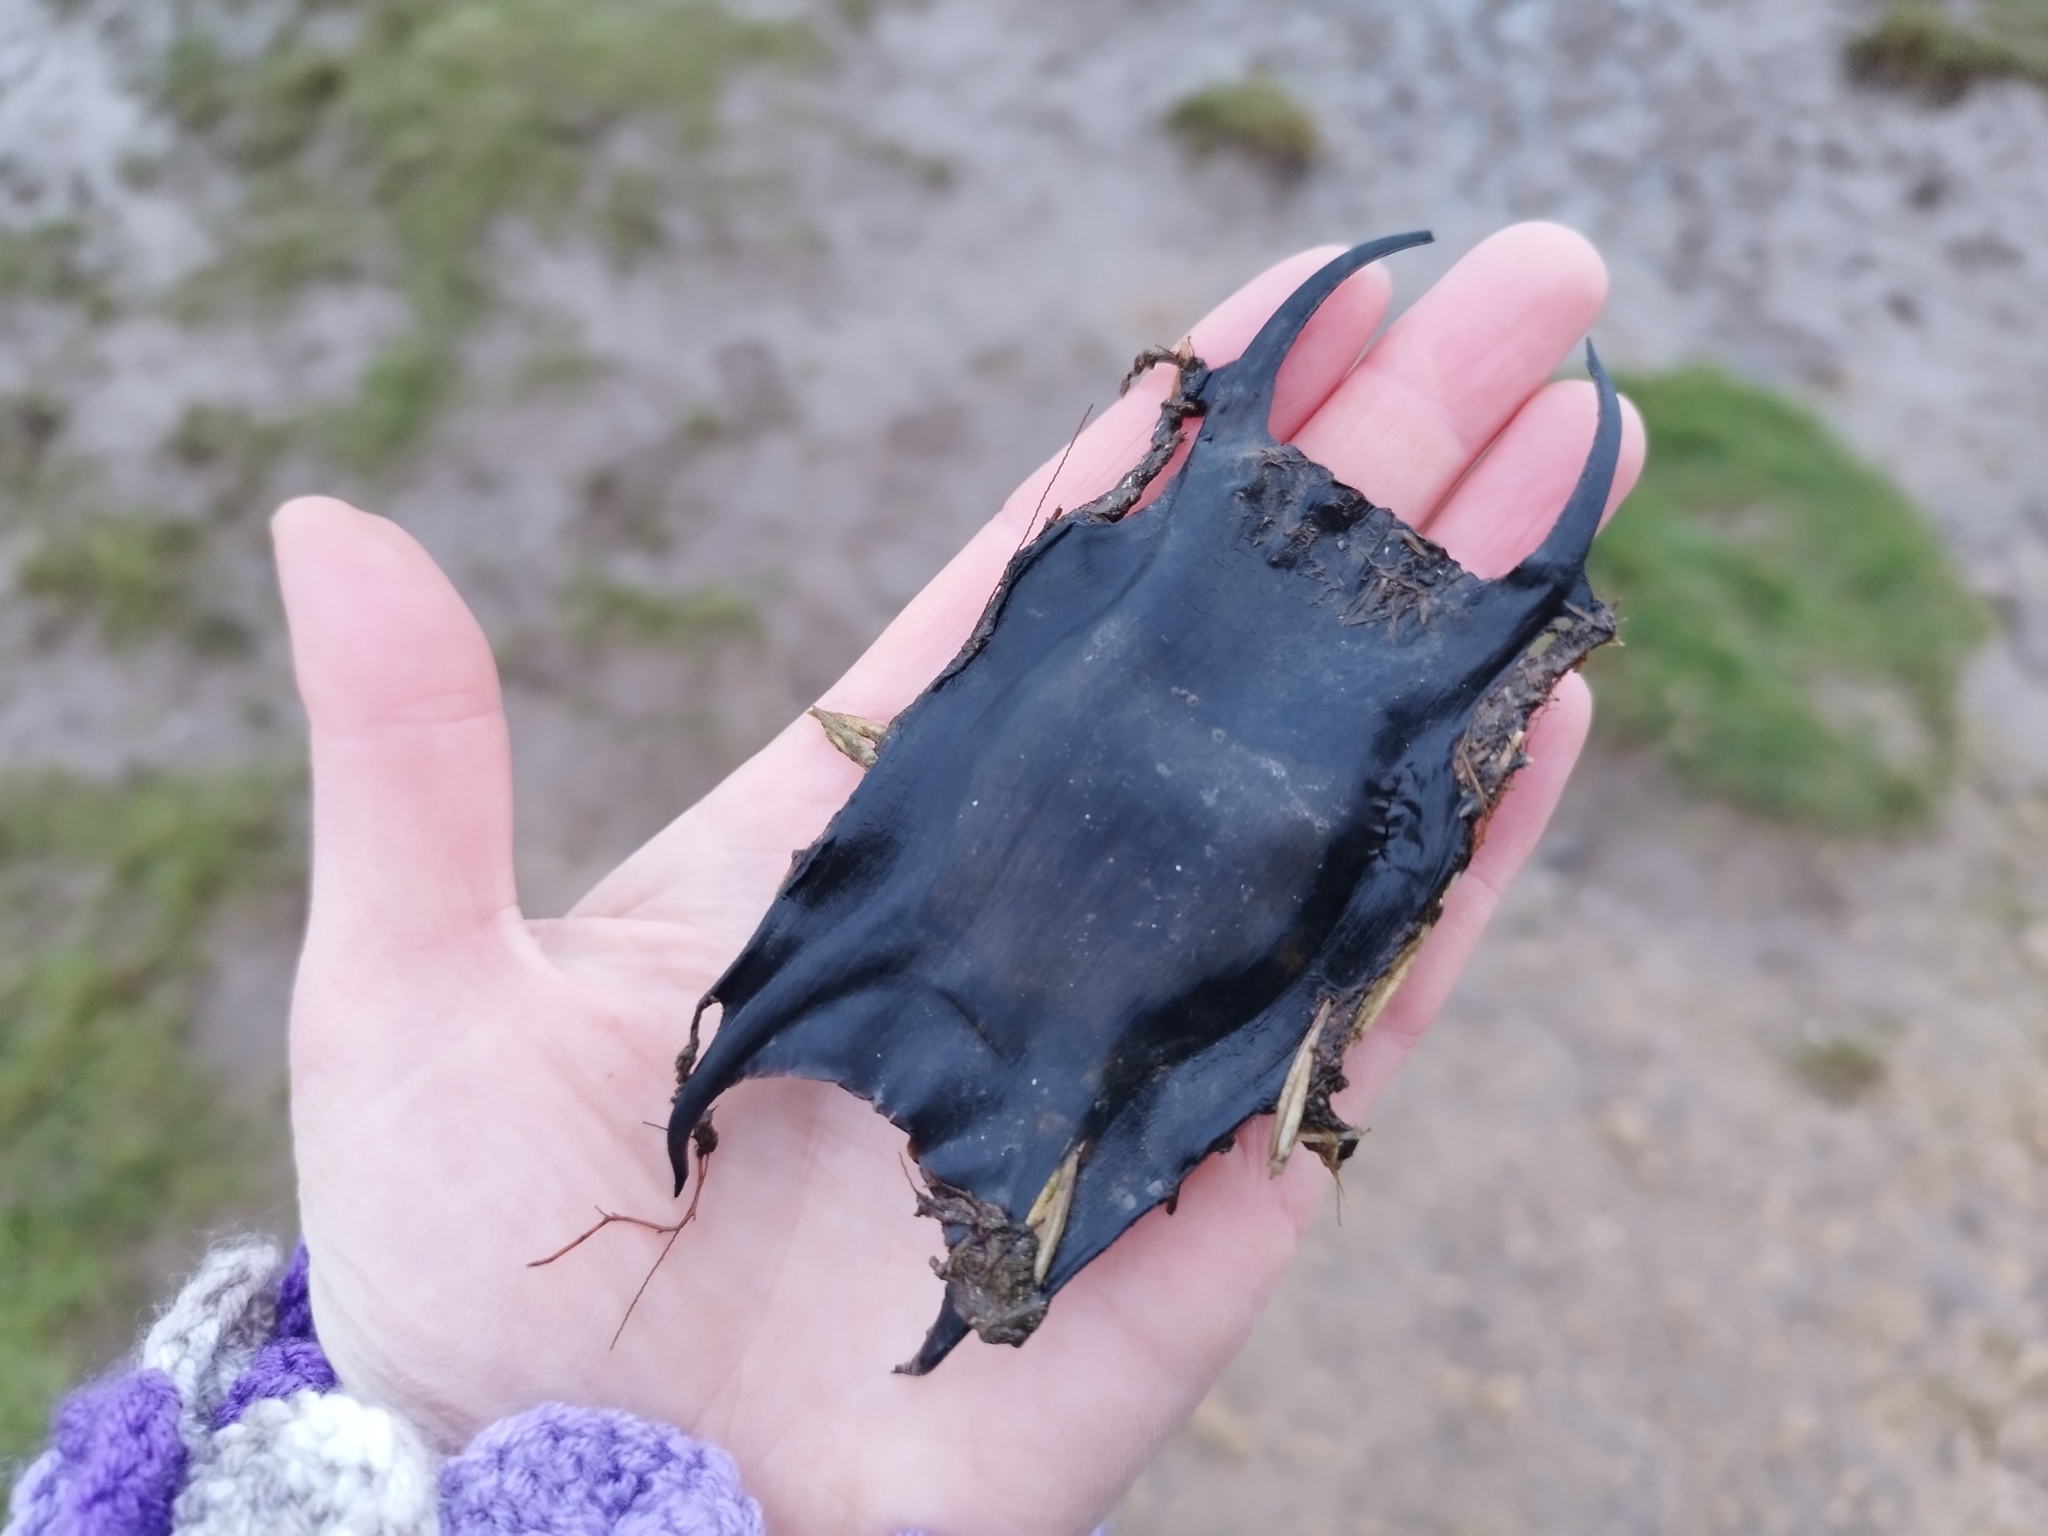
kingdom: Animalia
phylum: Chordata
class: Elasmobranchii
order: Rajiformes
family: Rajidae
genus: Raja
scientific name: Raja clavata
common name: Thornback ray
